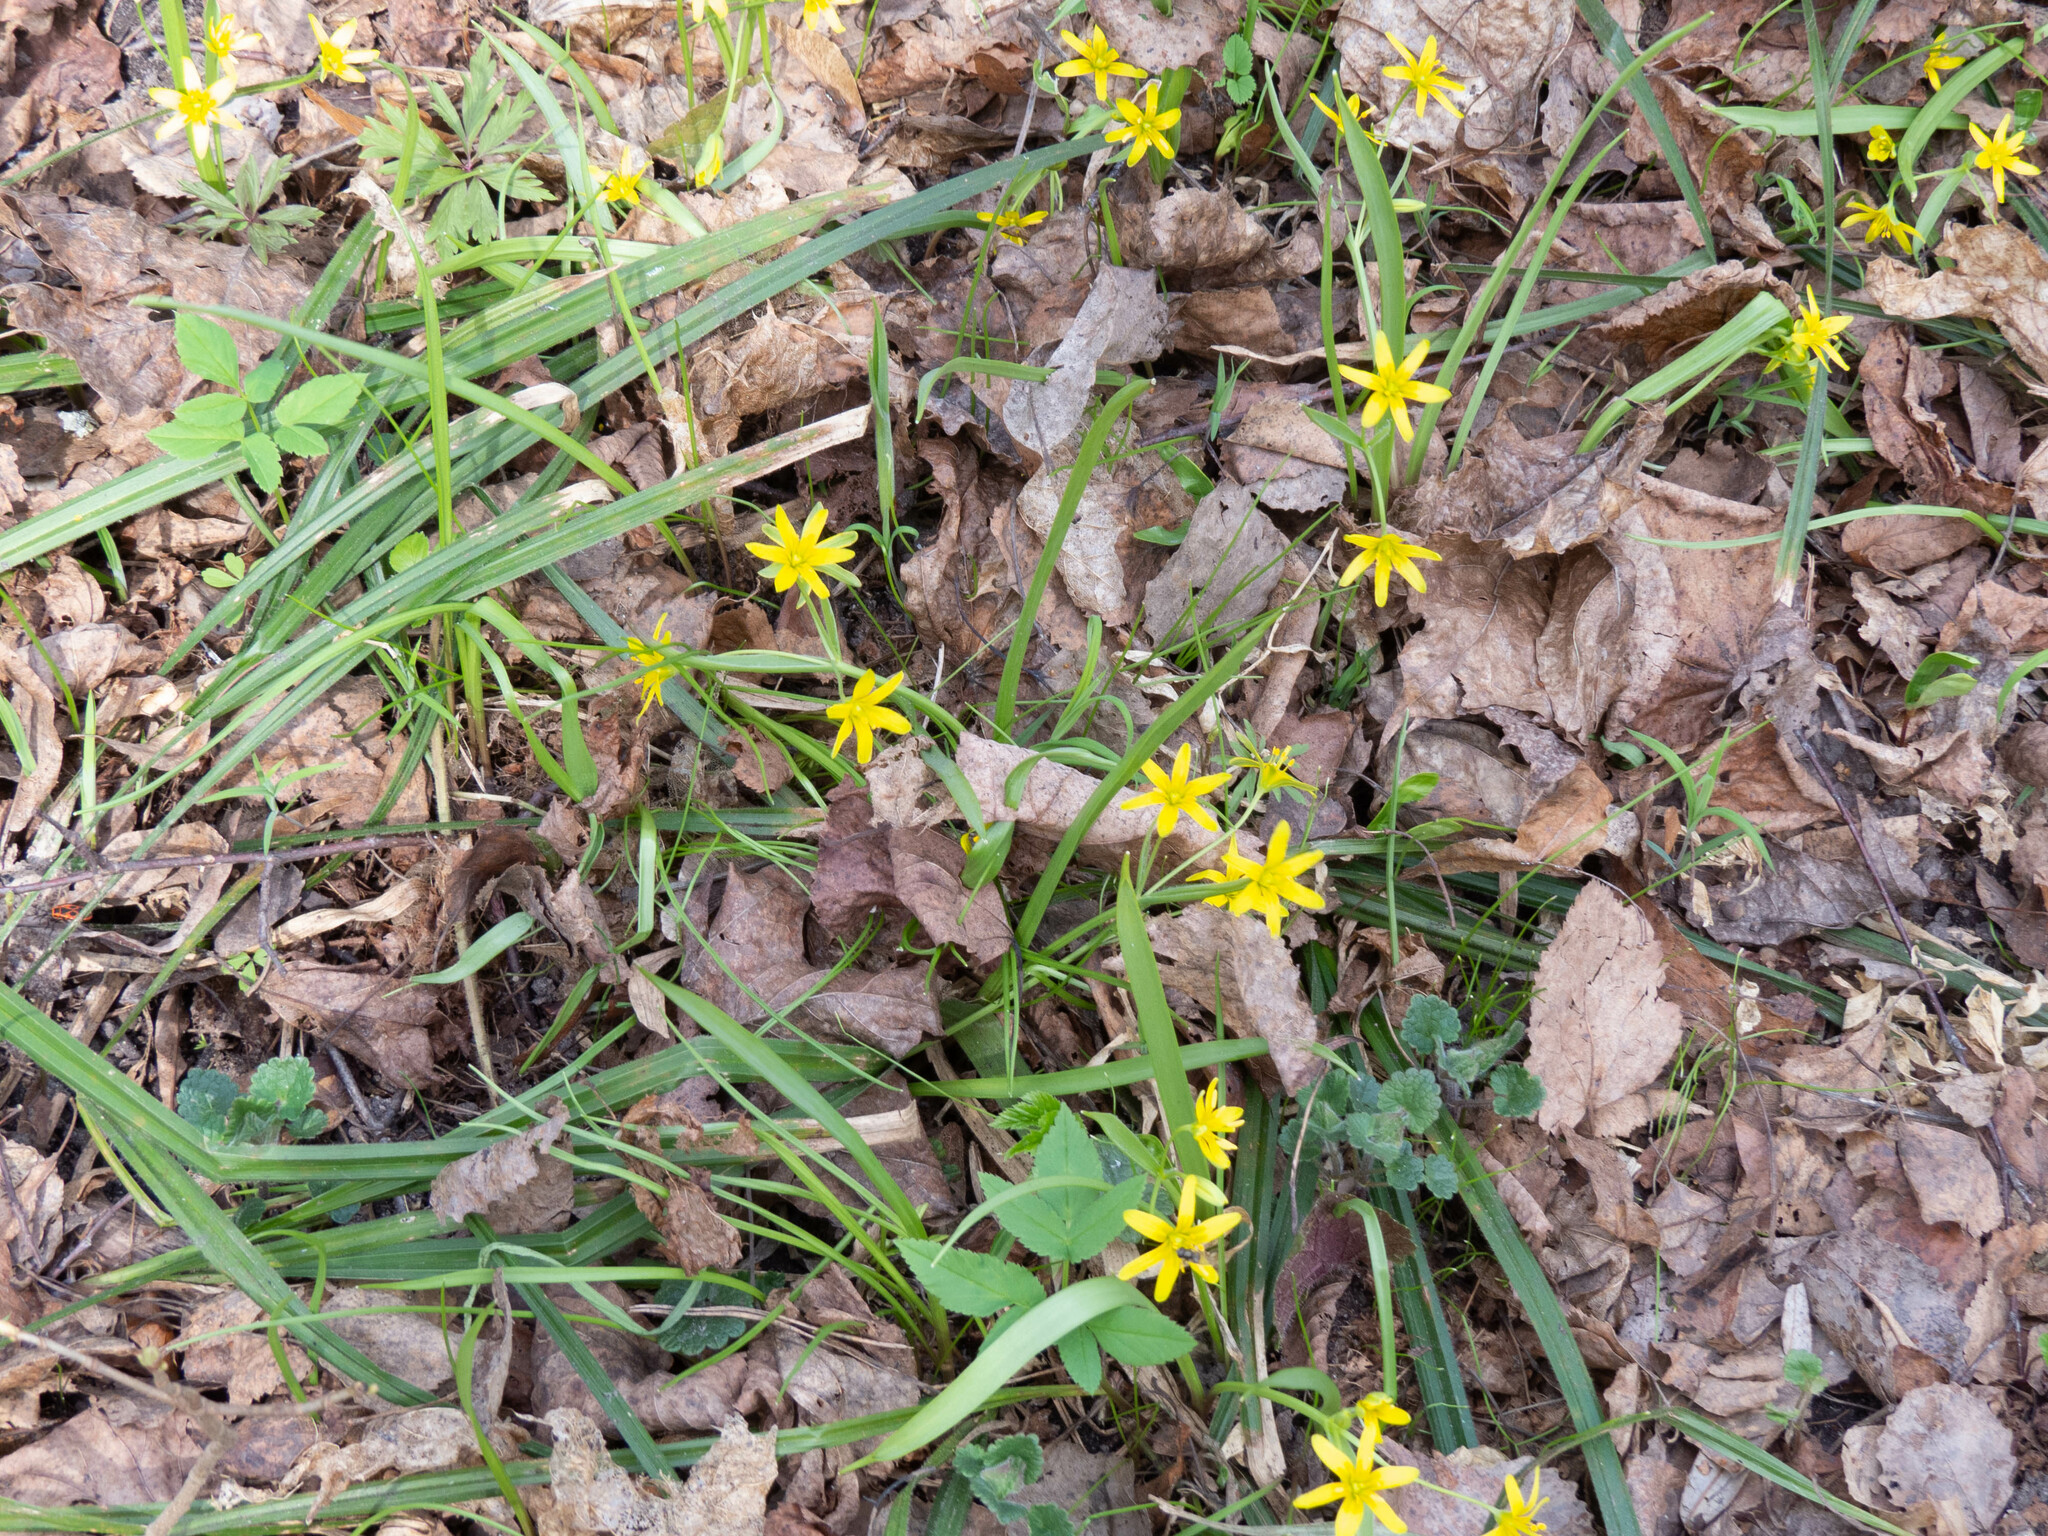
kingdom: Plantae
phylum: Tracheophyta
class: Liliopsida
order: Liliales
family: Liliaceae
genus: Gagea
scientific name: Gagea lutea
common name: Yellow star-of-bethlehem
